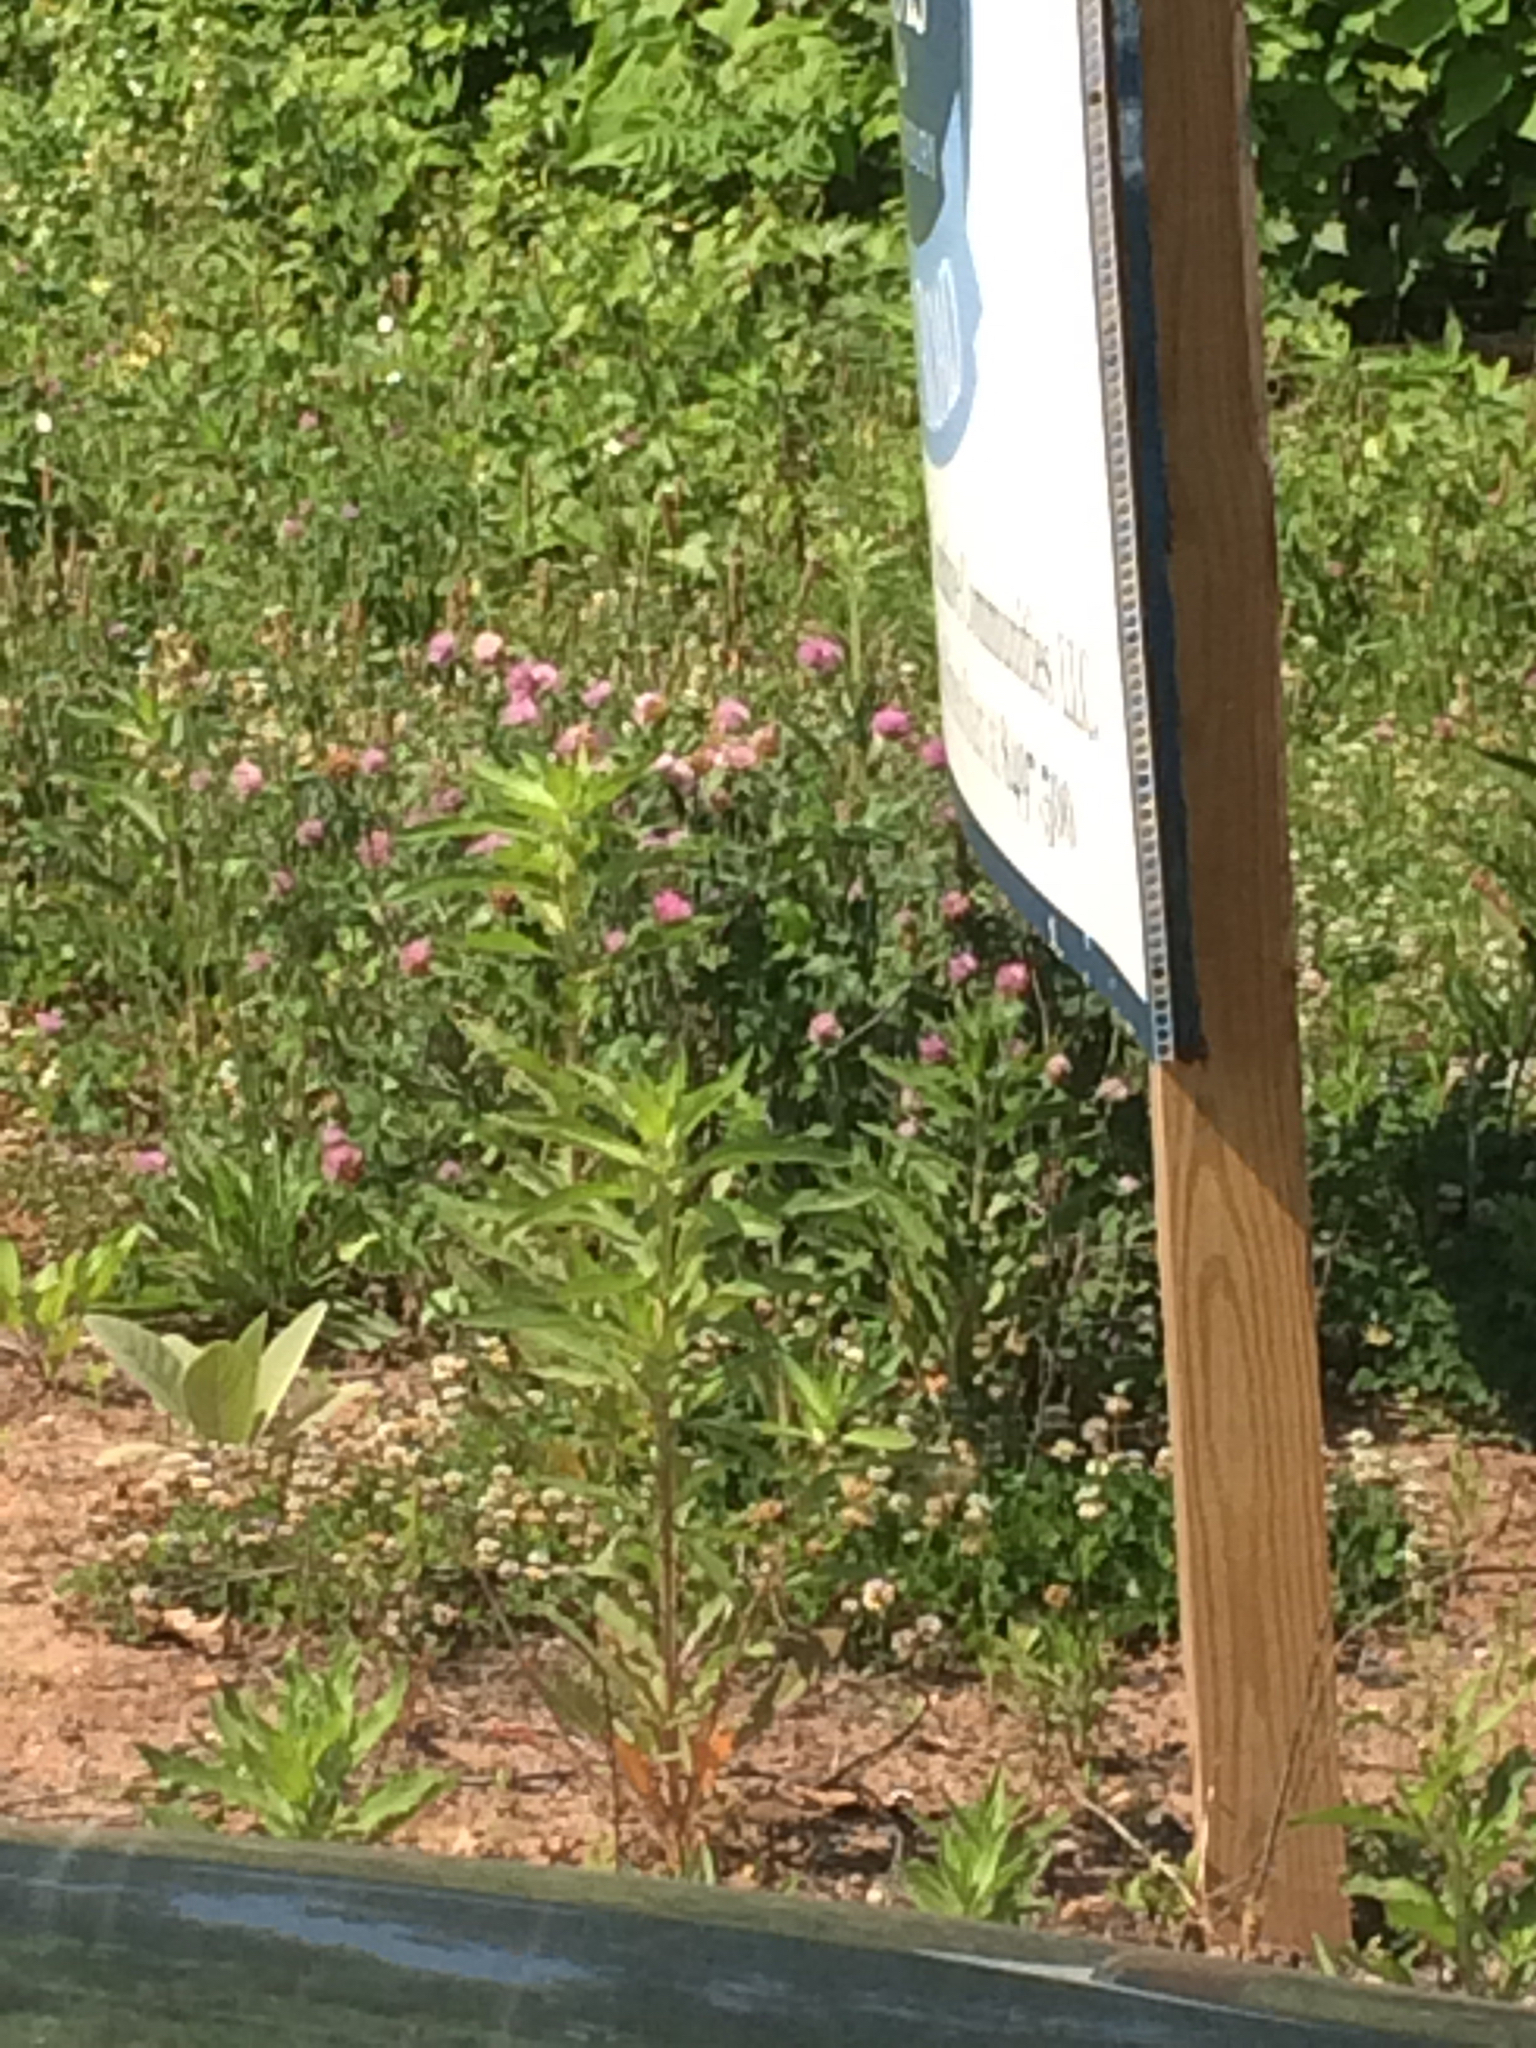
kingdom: Plantae
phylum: Tracheophyta
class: Magnoliopsida
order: Fabales
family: Fabaceae
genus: Trifolium
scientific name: Trifolium pratense
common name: Red clover
